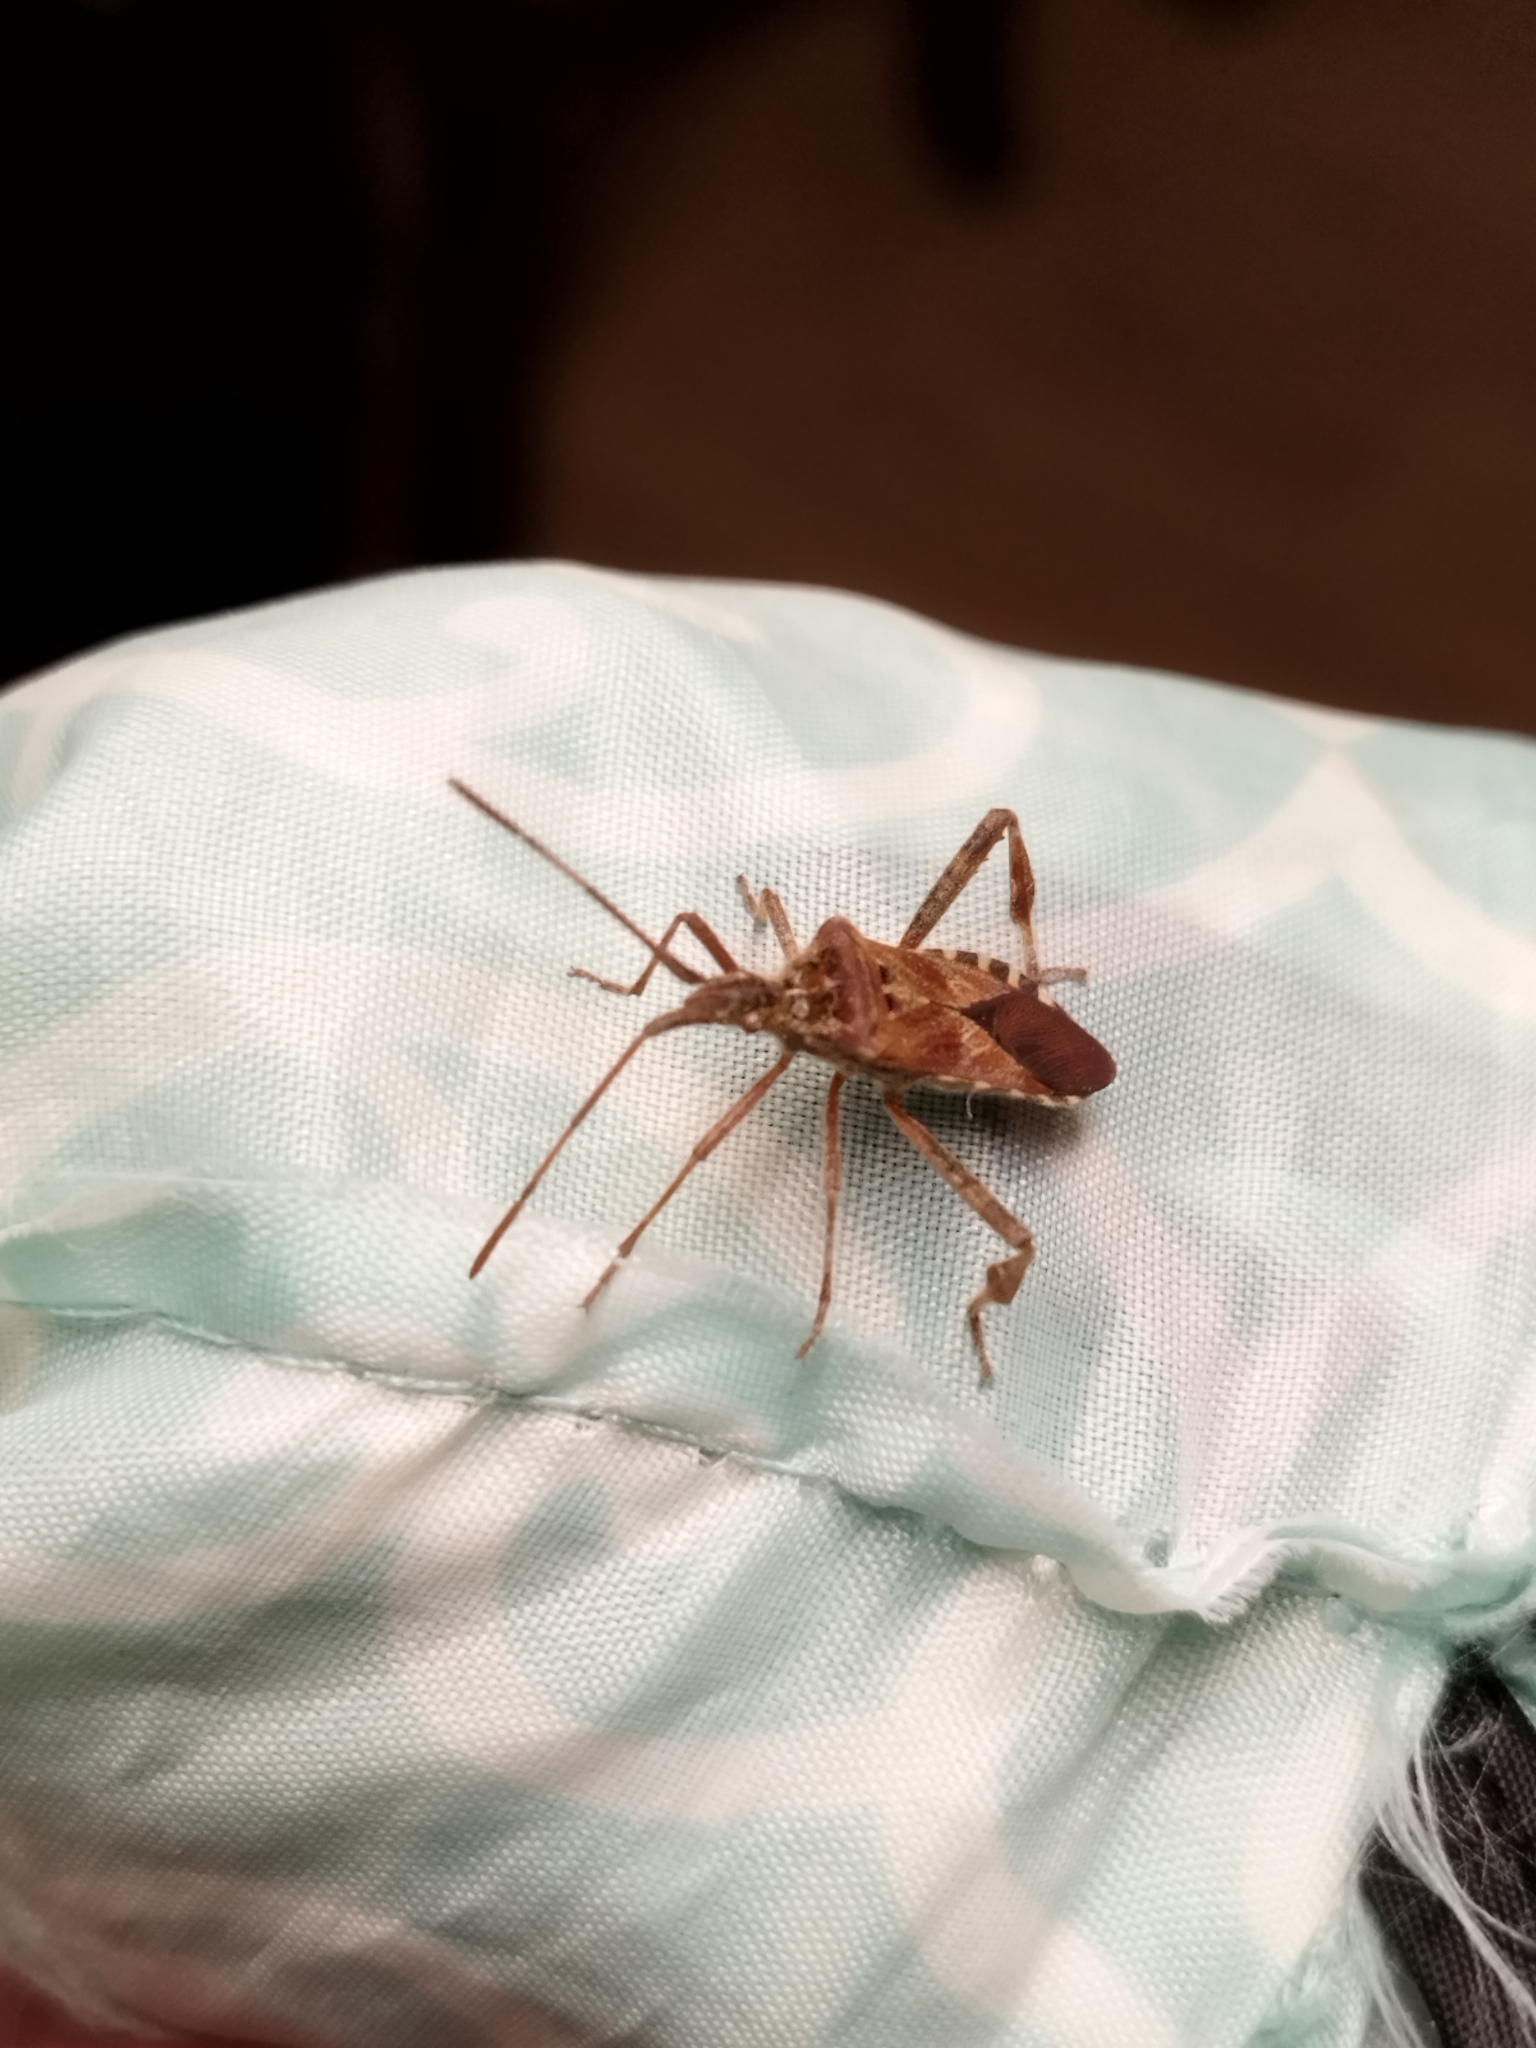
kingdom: Animalia
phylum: Arthropoda
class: Insecta
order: Hemiptera
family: Coreidae
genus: Leptoglossus
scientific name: Leptoglossus occidentalis
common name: Western conifer-seed bug
